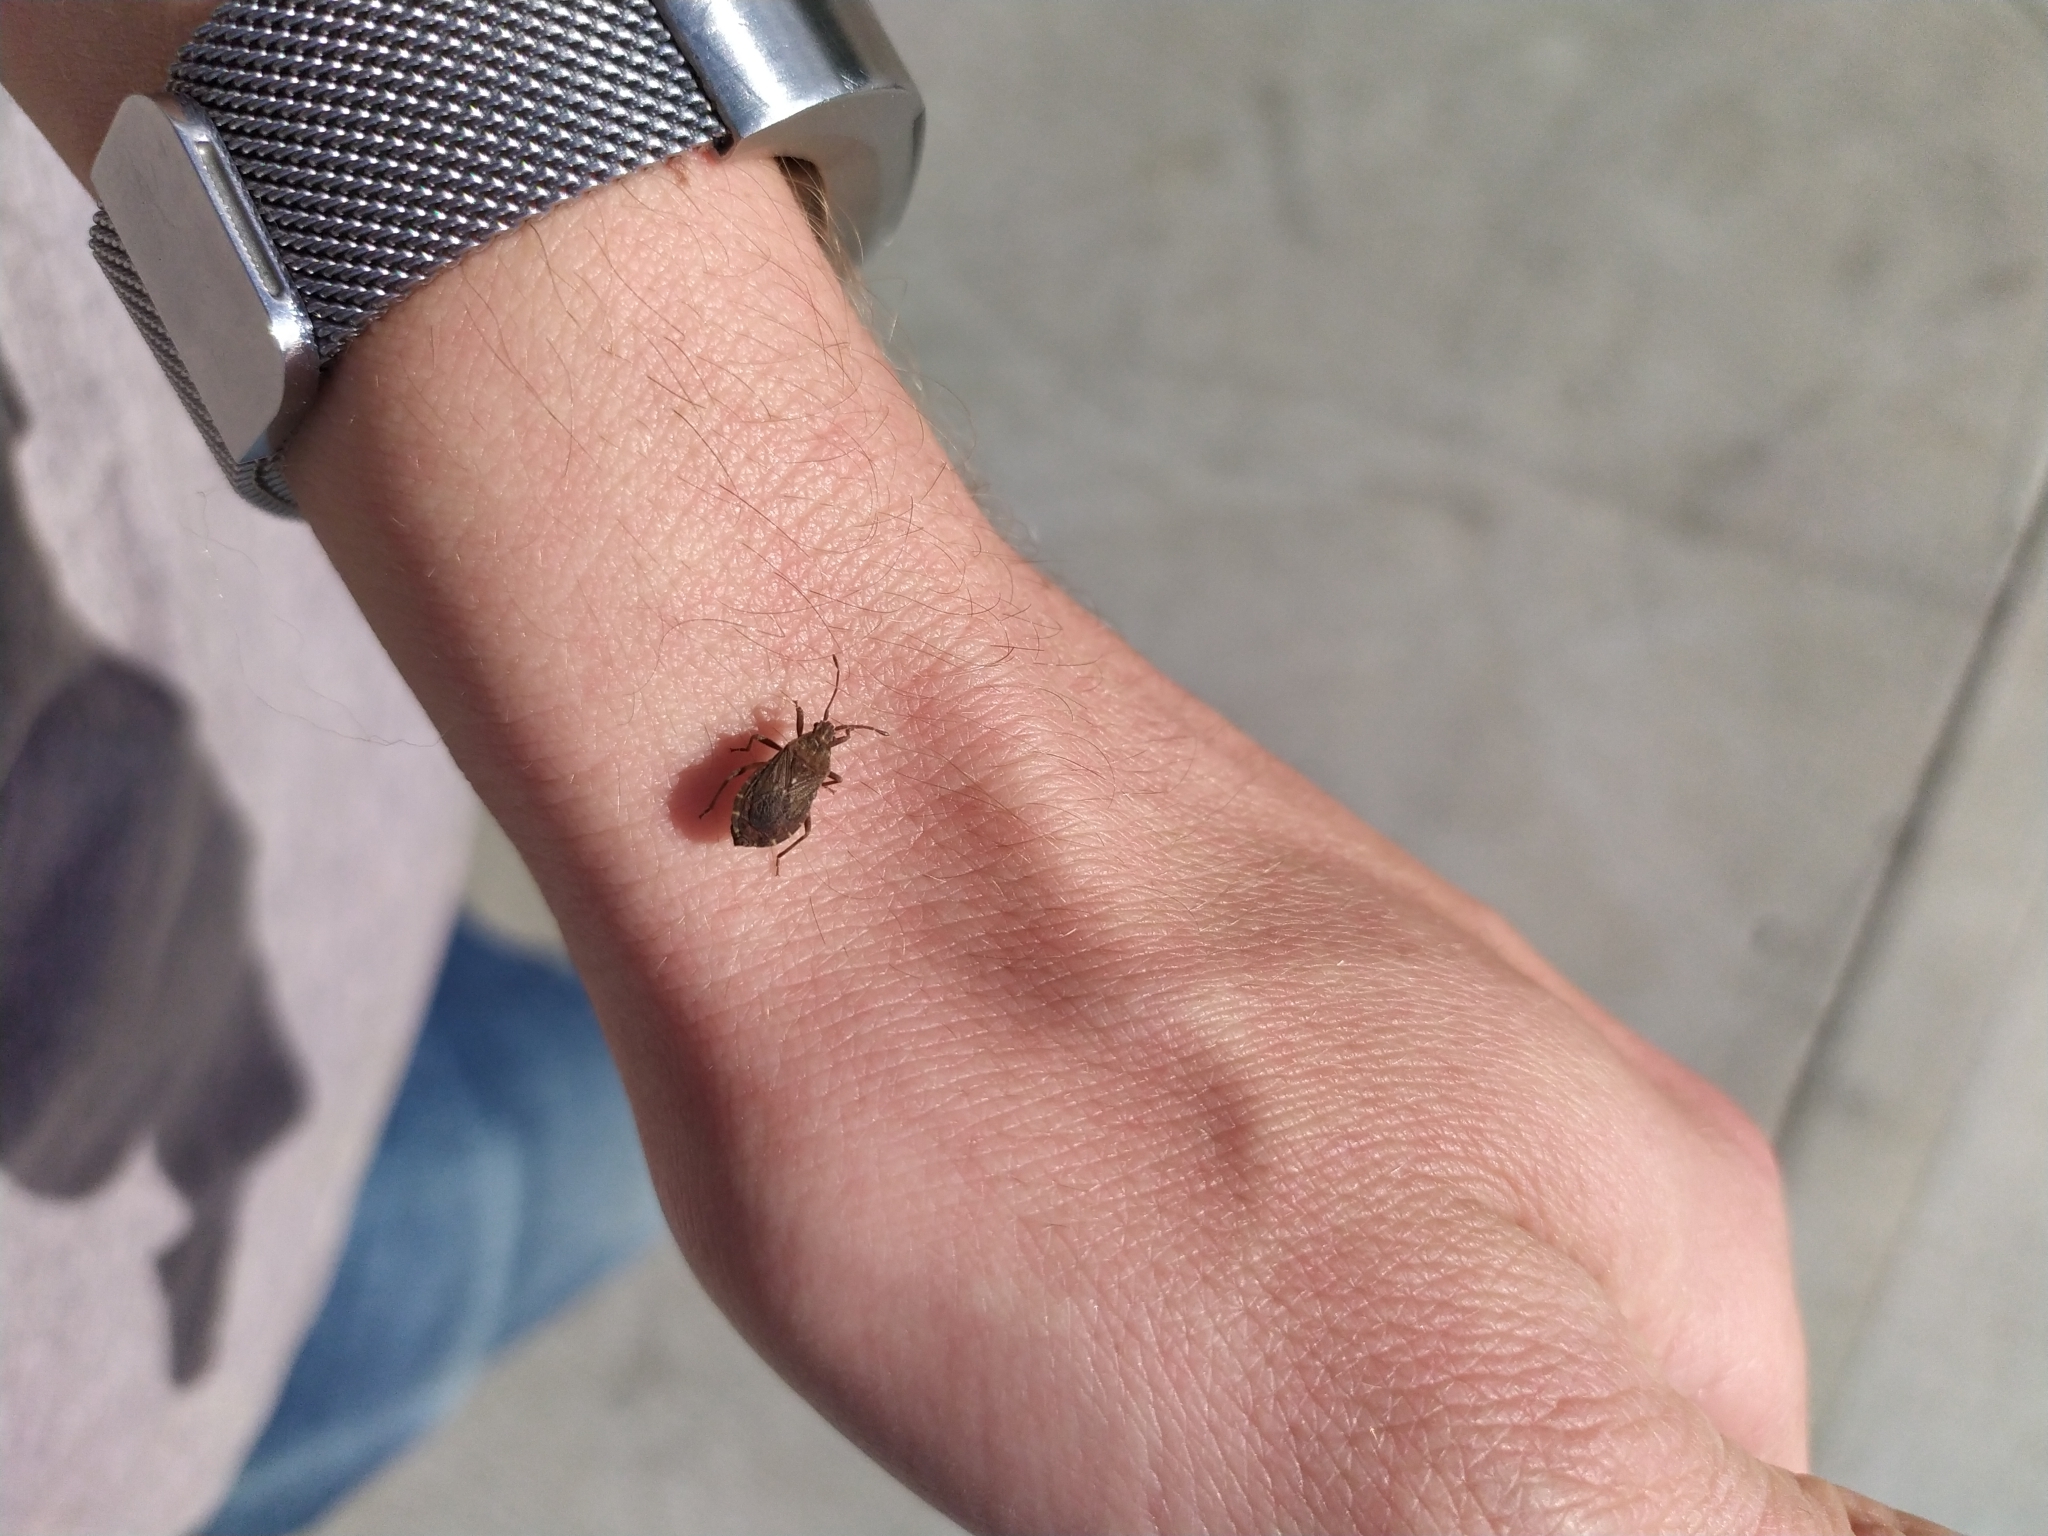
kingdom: Animalia
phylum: Arthropoda
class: Insecta
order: Hemiptera
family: Coreidae
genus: Acantholybas
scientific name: Acantholybas brunneus
